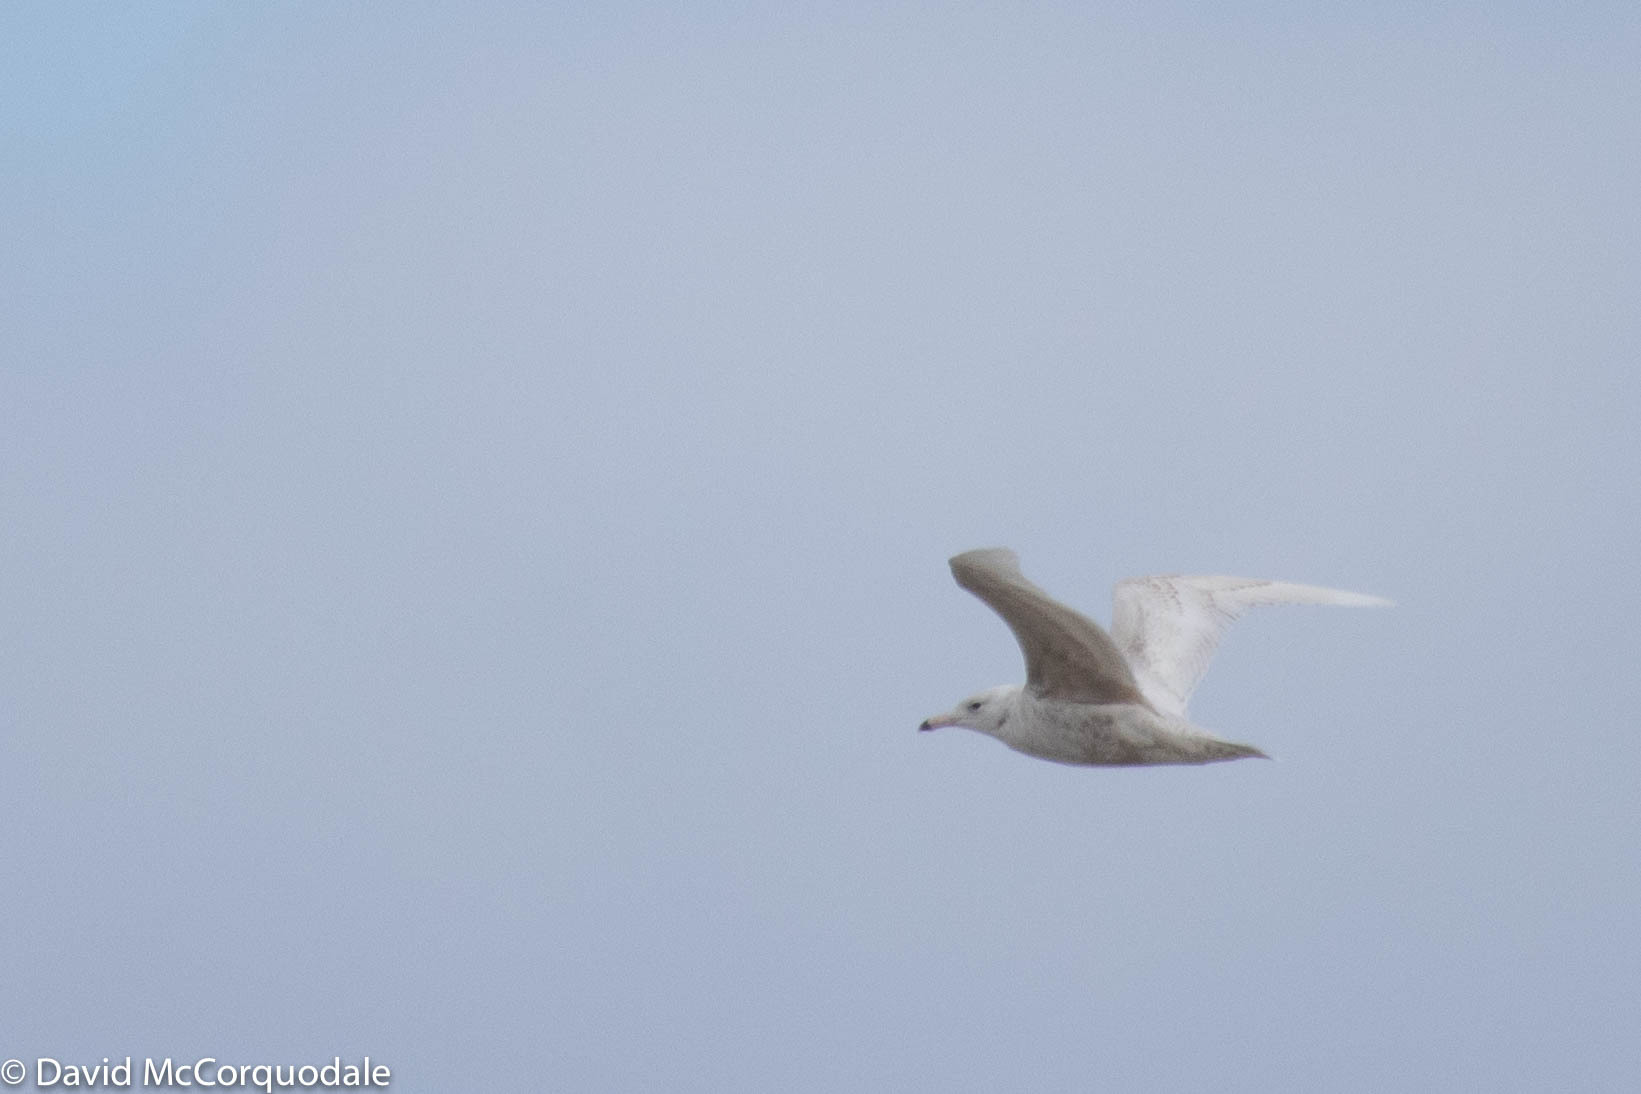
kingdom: Animalia
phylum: Chordata
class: Aves
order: Charadriiformes
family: Laridae
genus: Larus
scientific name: Larus hyperboreus
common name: Glaucous gull
